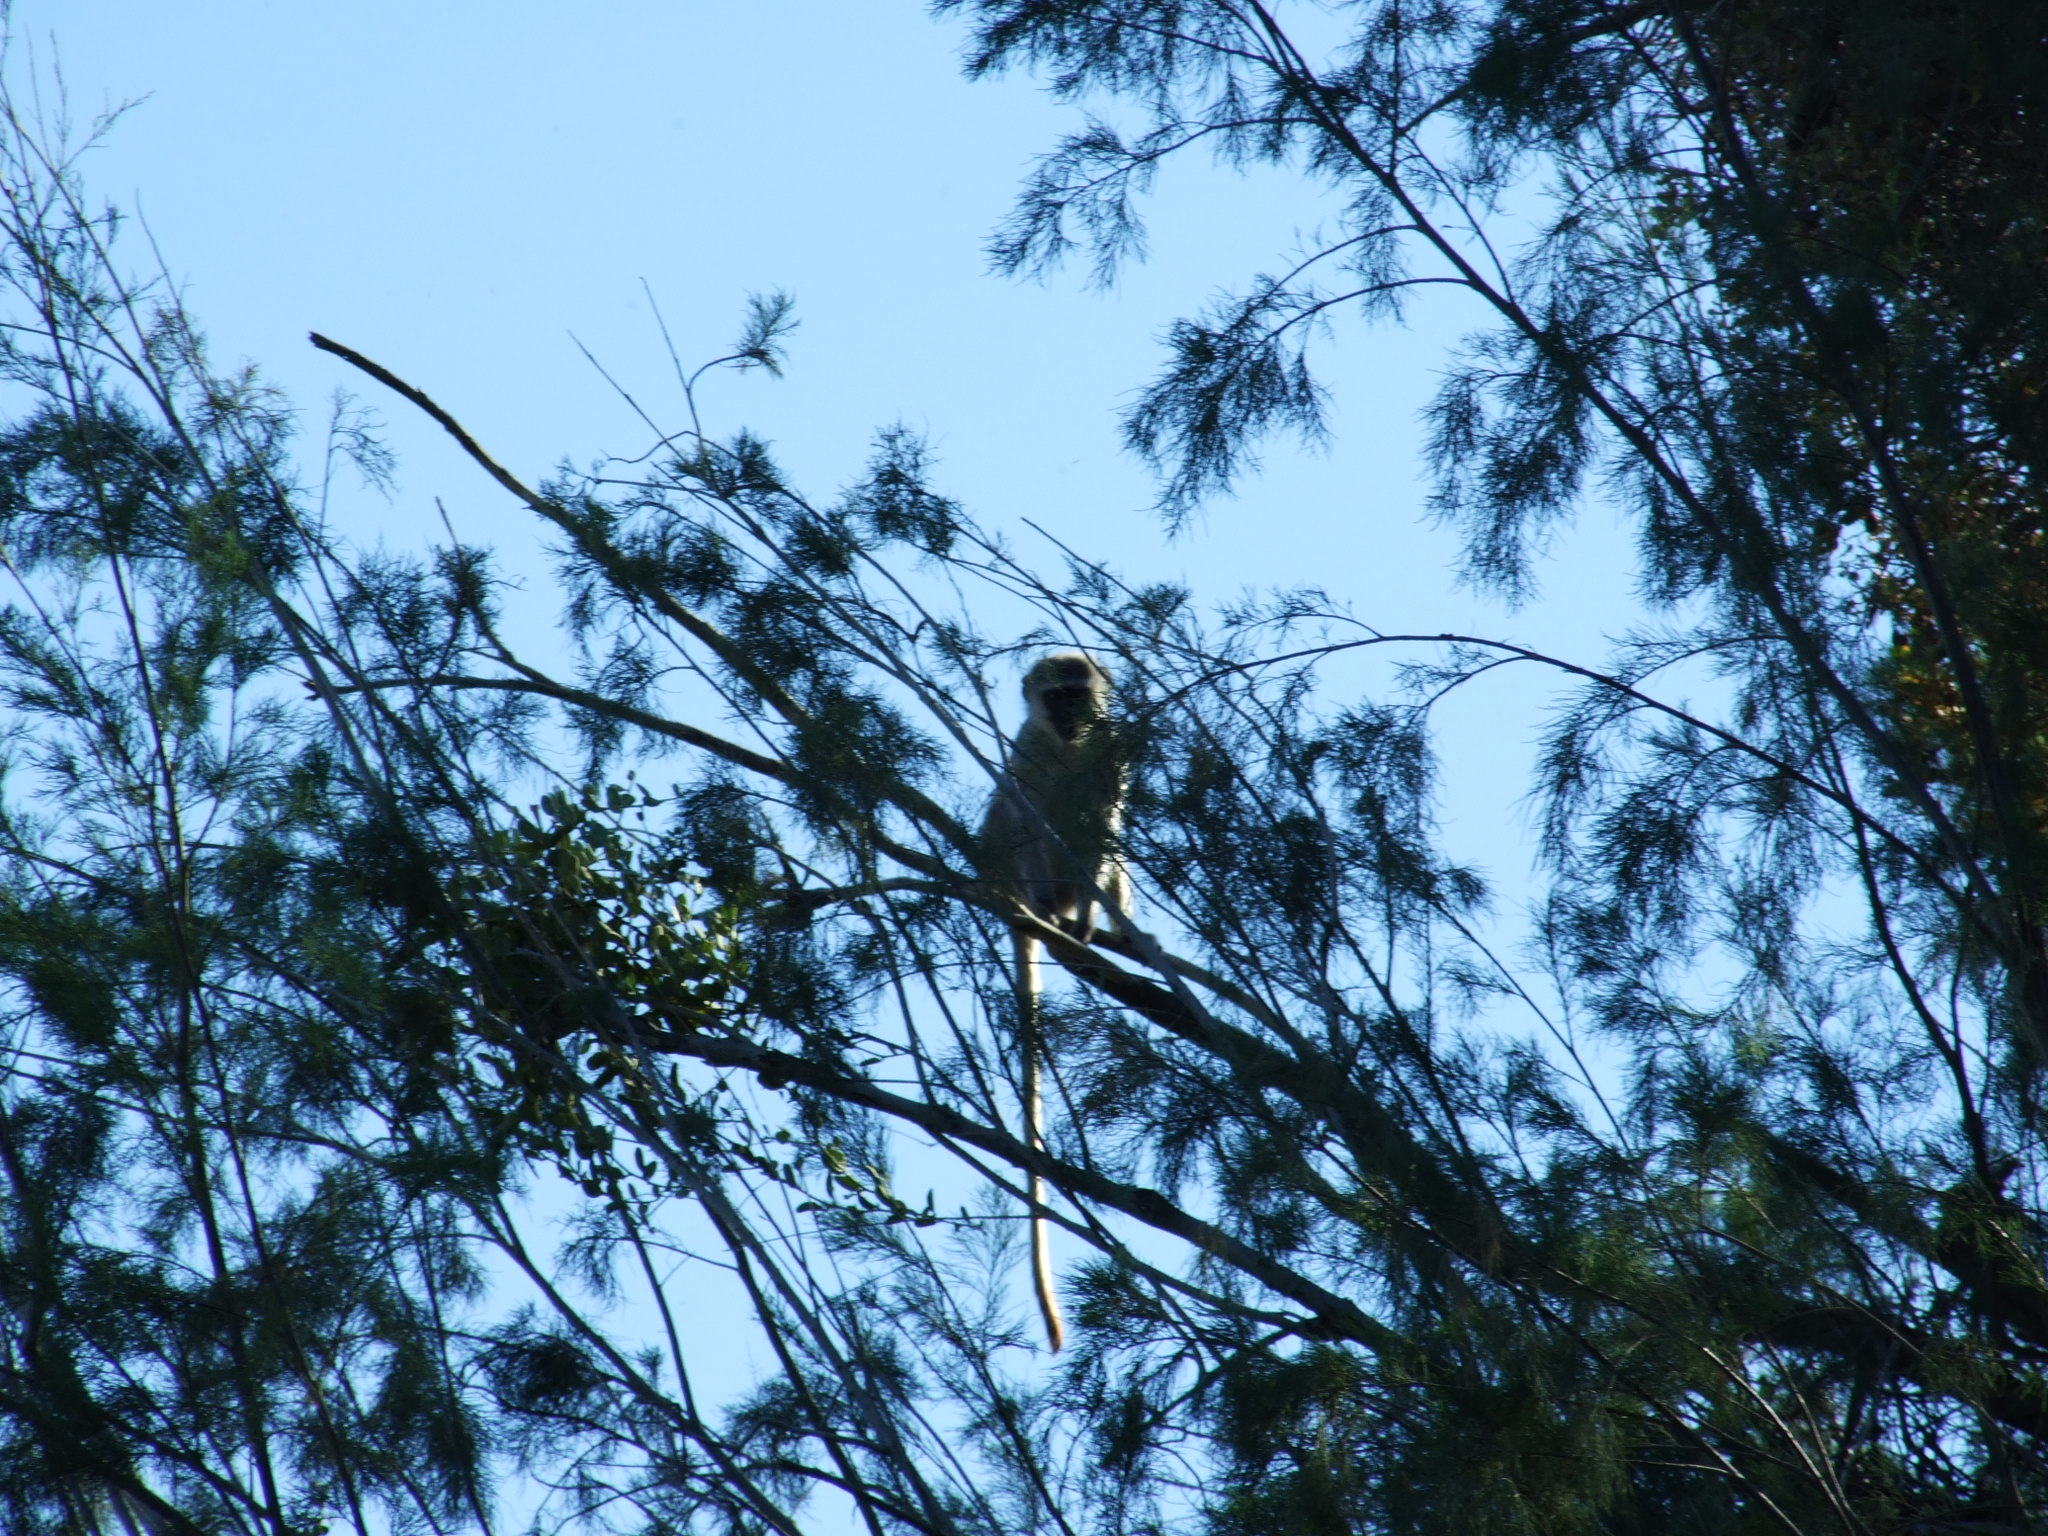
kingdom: Animalia
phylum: Chordata
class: Mammalia
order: Primates
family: Cercopithecidae
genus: Chlorocebus
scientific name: Chlorocebus pygerythrus
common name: Vervet monkey
